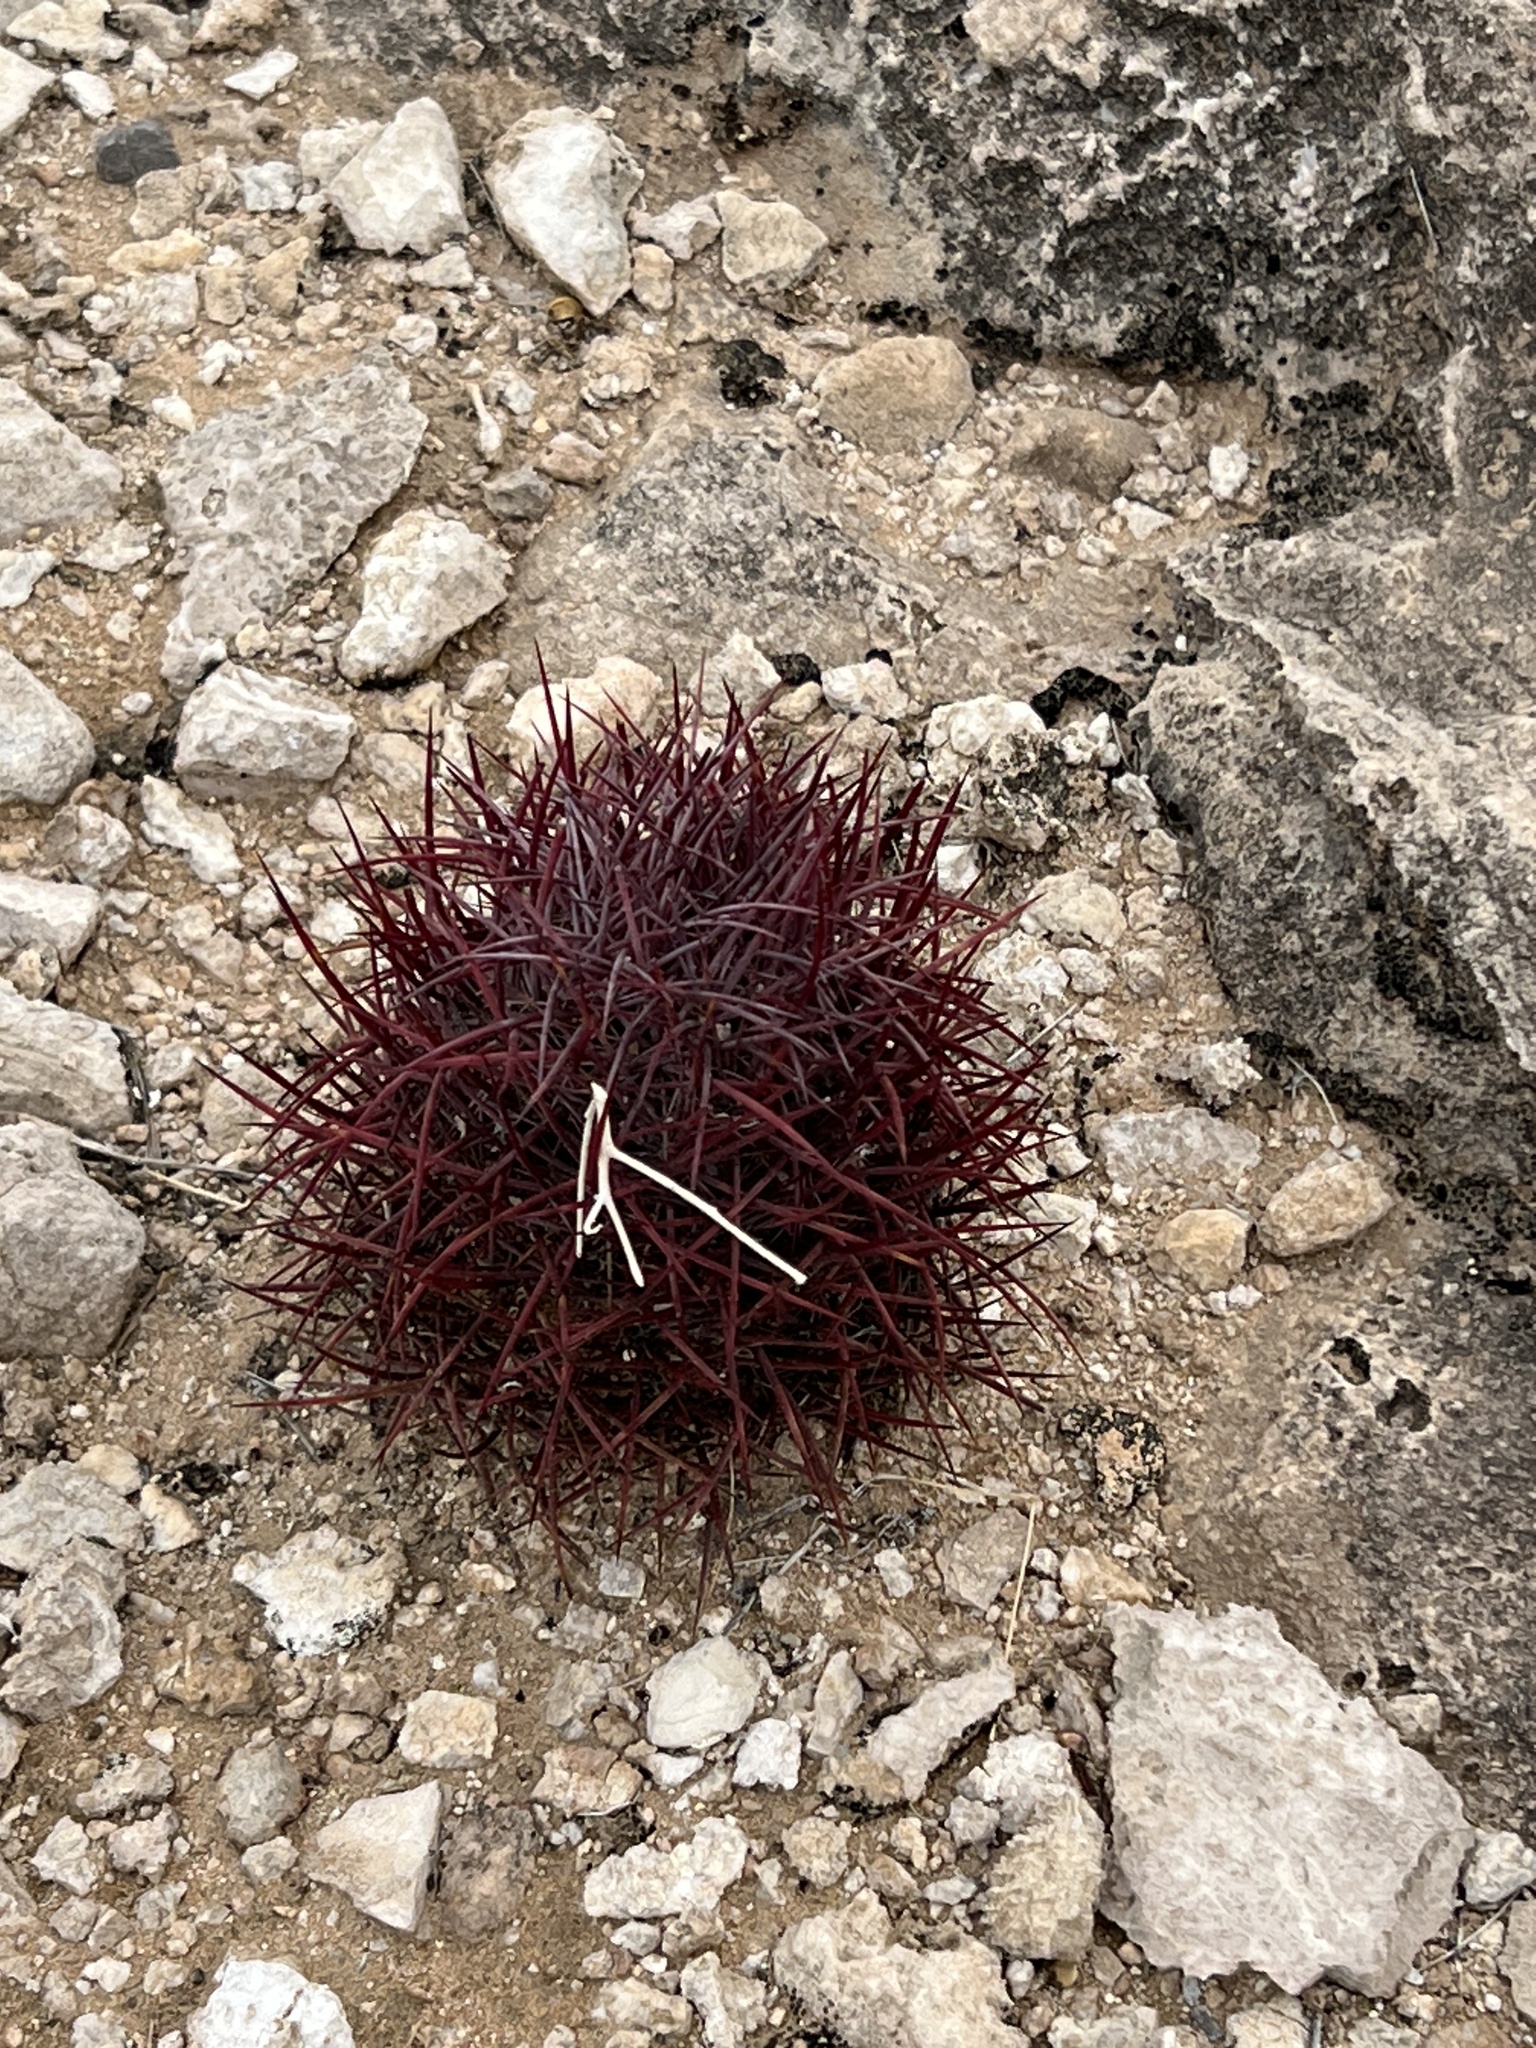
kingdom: Plantae
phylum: Tracheophyta
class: Magnoliopsida
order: Caryophyllales
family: Cactaceae
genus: Sclerocactus
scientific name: Sclerocactus johnsonii
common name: Eight-spine fishhook cactus
